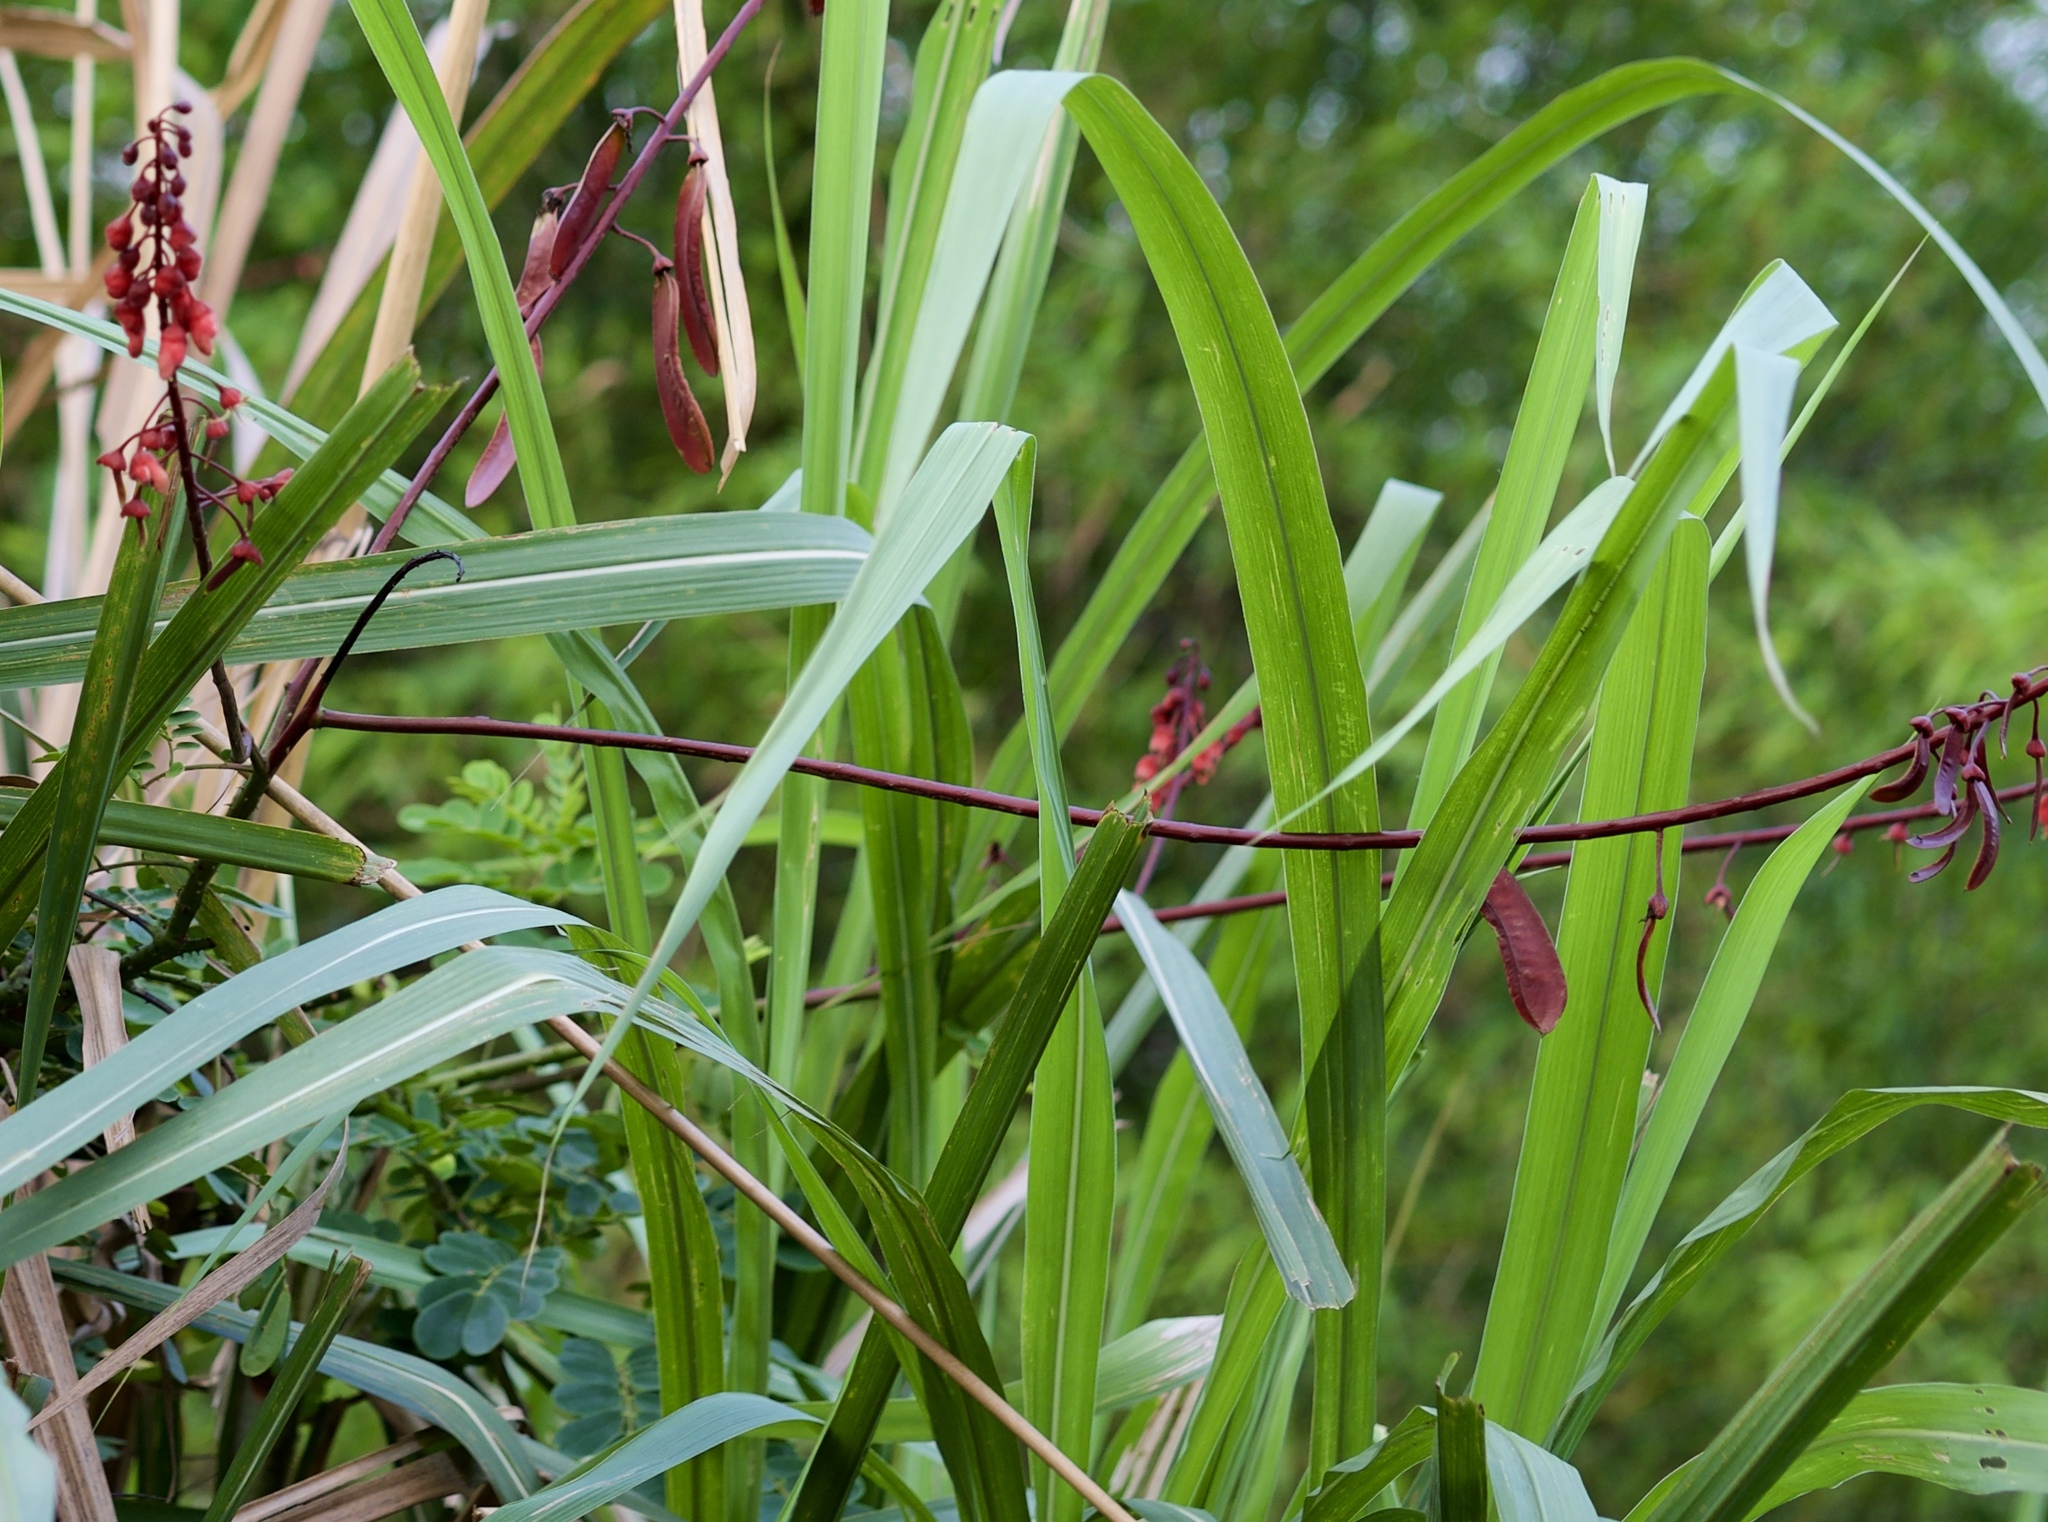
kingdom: Plantae
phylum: Tracheophyta
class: Magnoliopsida
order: Fabales
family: Fabaceae
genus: Mezoneuron
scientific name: Mezoneuron latisiliquum
